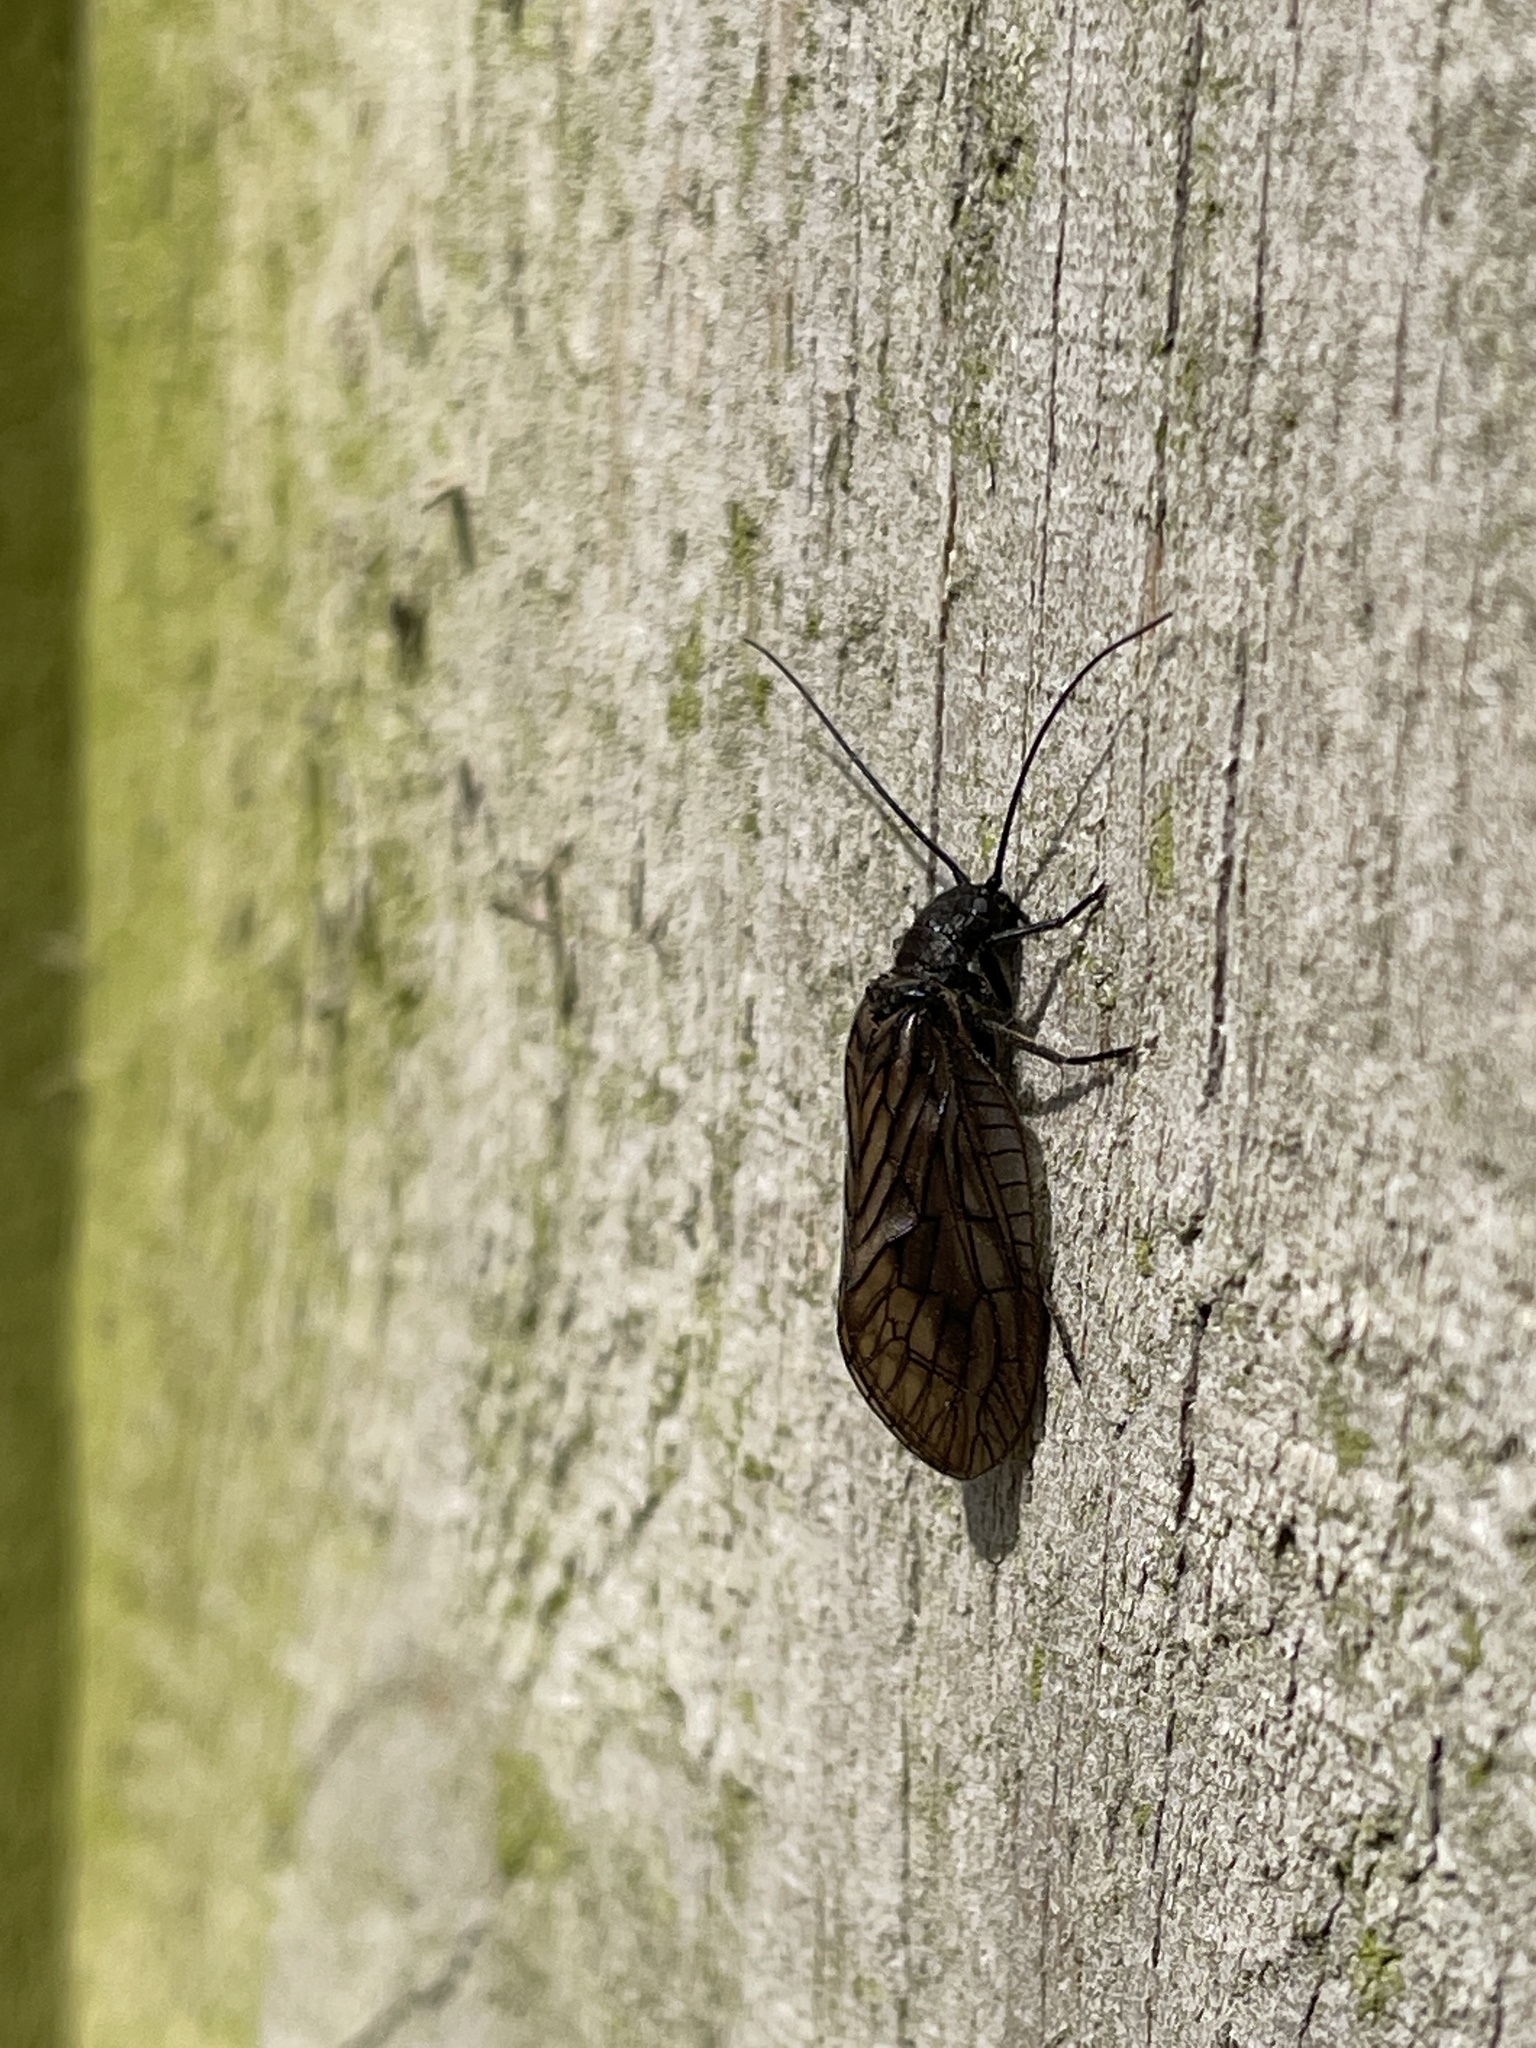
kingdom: Animalia
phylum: Arthropoda
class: Insecta
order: Megaloptera
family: Sialidae
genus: Sialis
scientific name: Sialis
